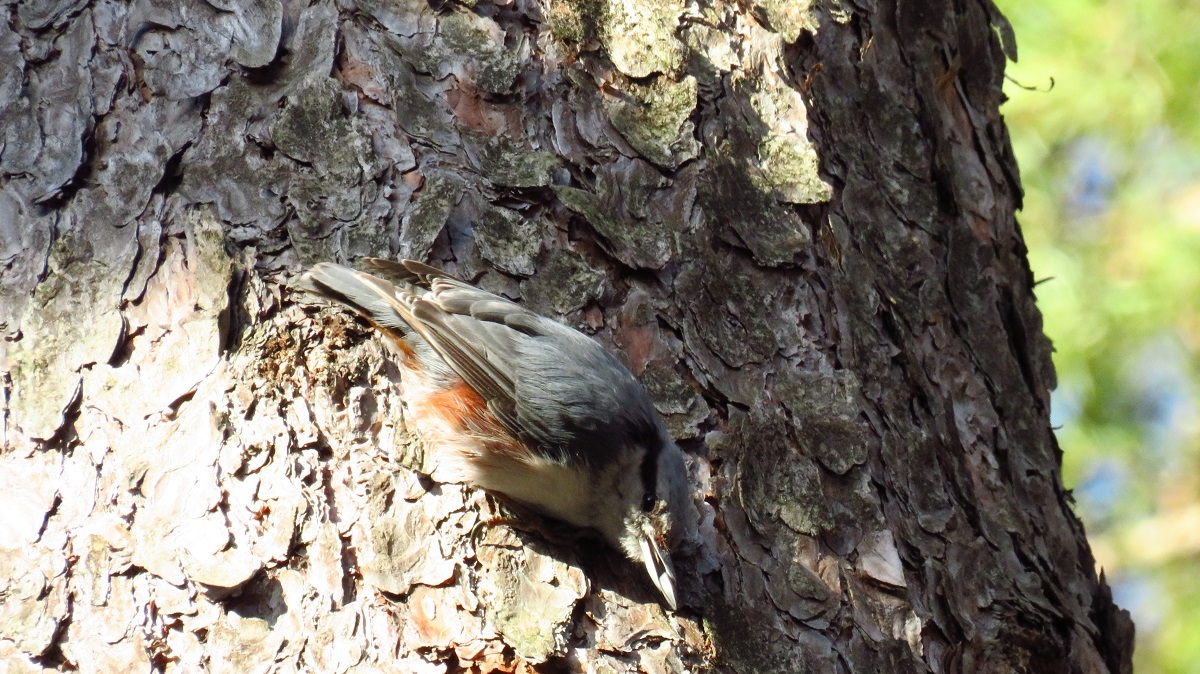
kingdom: Animalia
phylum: Chordata
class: Aves
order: Passeriformes
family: Sittidae
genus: Sitta
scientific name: Sitta europaea
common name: Eurasian nuthatch
